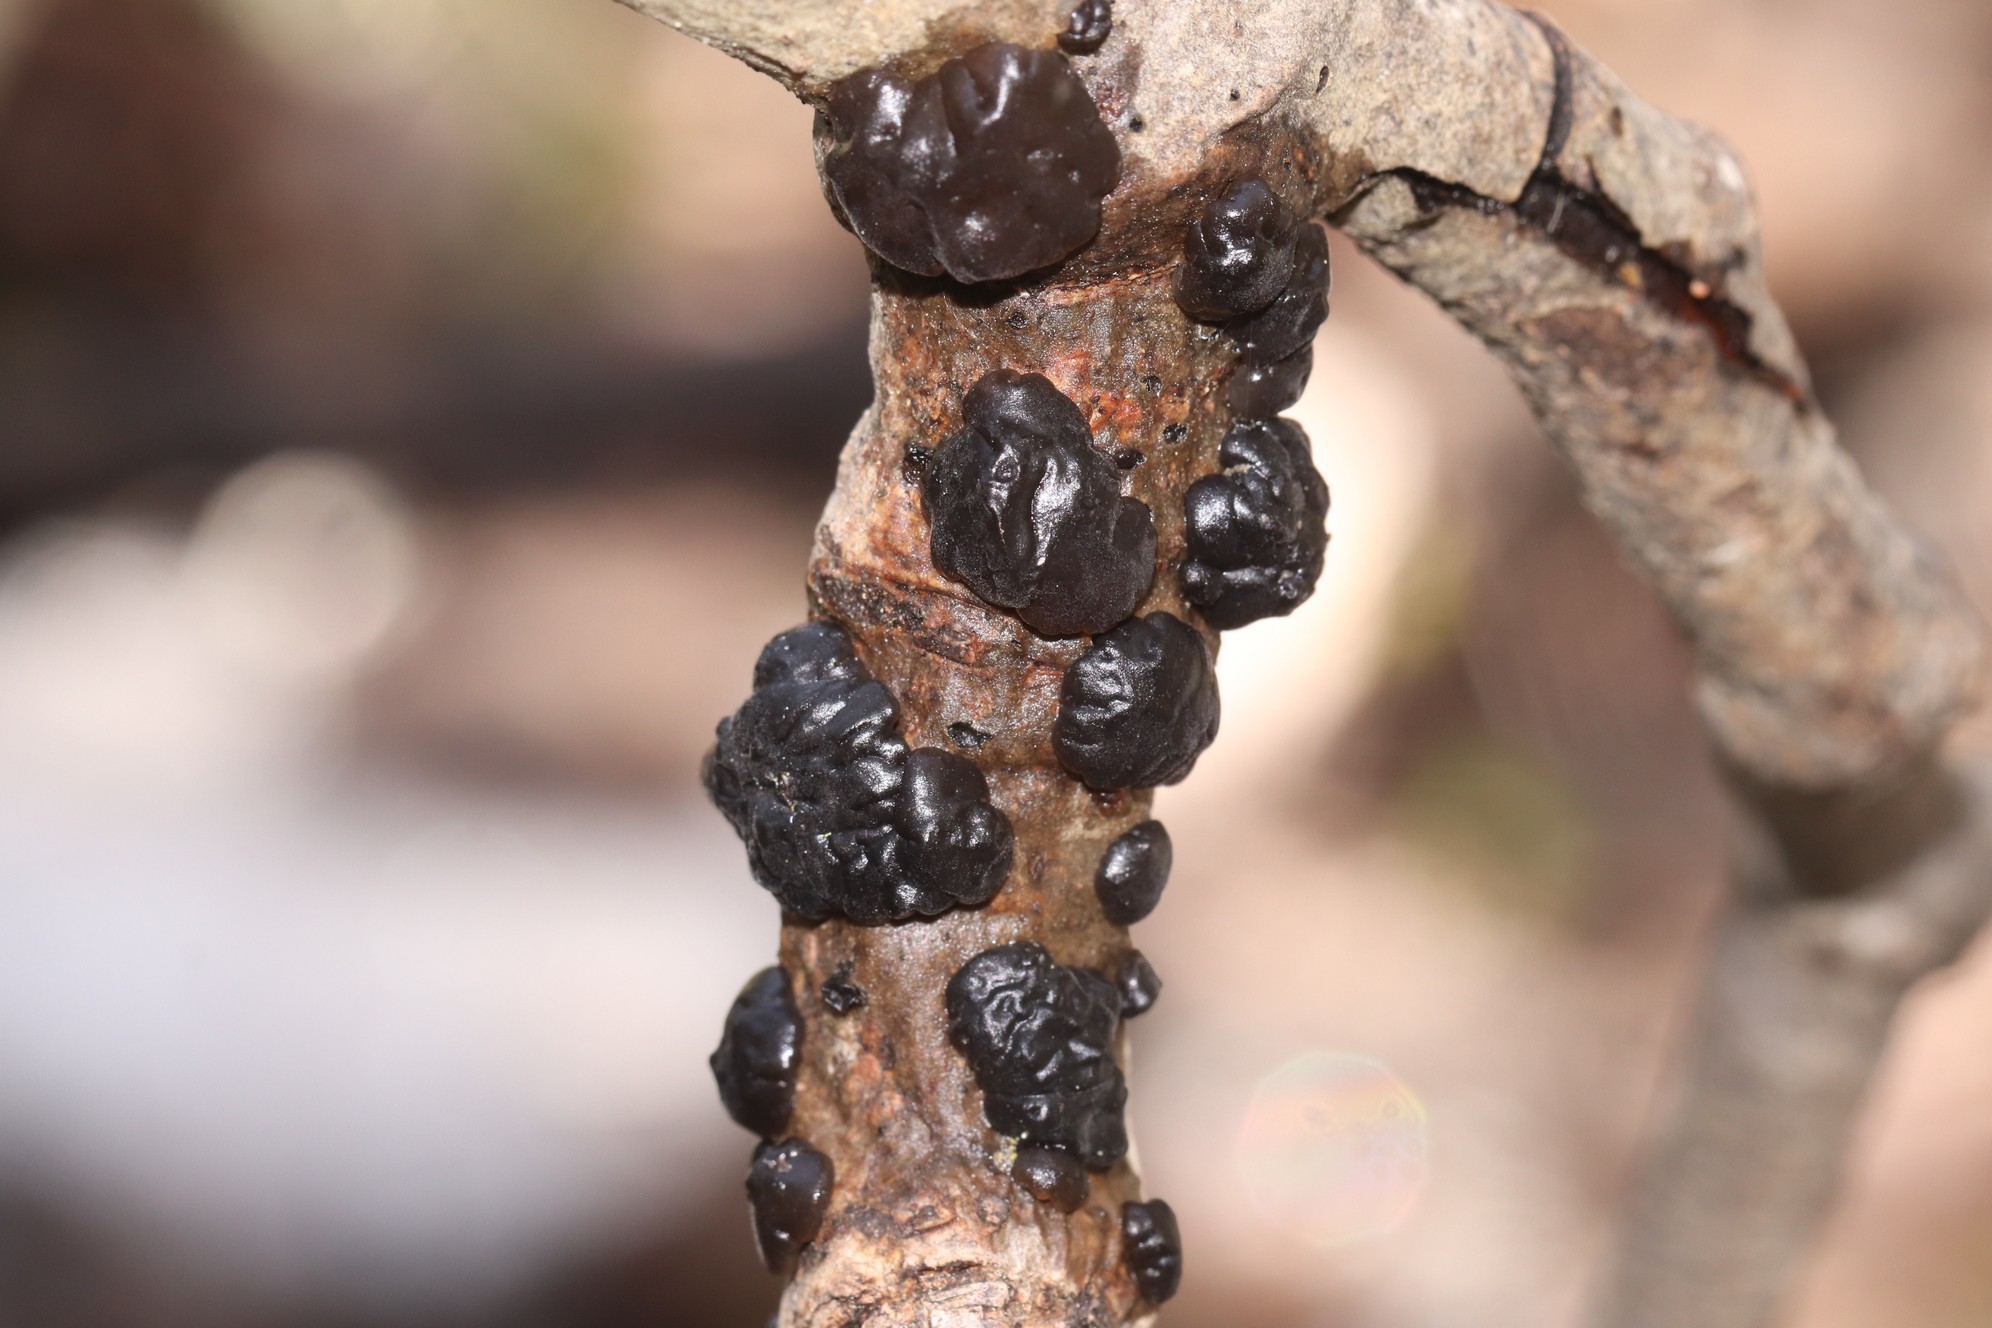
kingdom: Fungi
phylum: Basidiomycota
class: Agaricomycetes
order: Auriculariales
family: Auriculariaceae
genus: Exidia
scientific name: Exidia glandulosa
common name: Witches' butter
